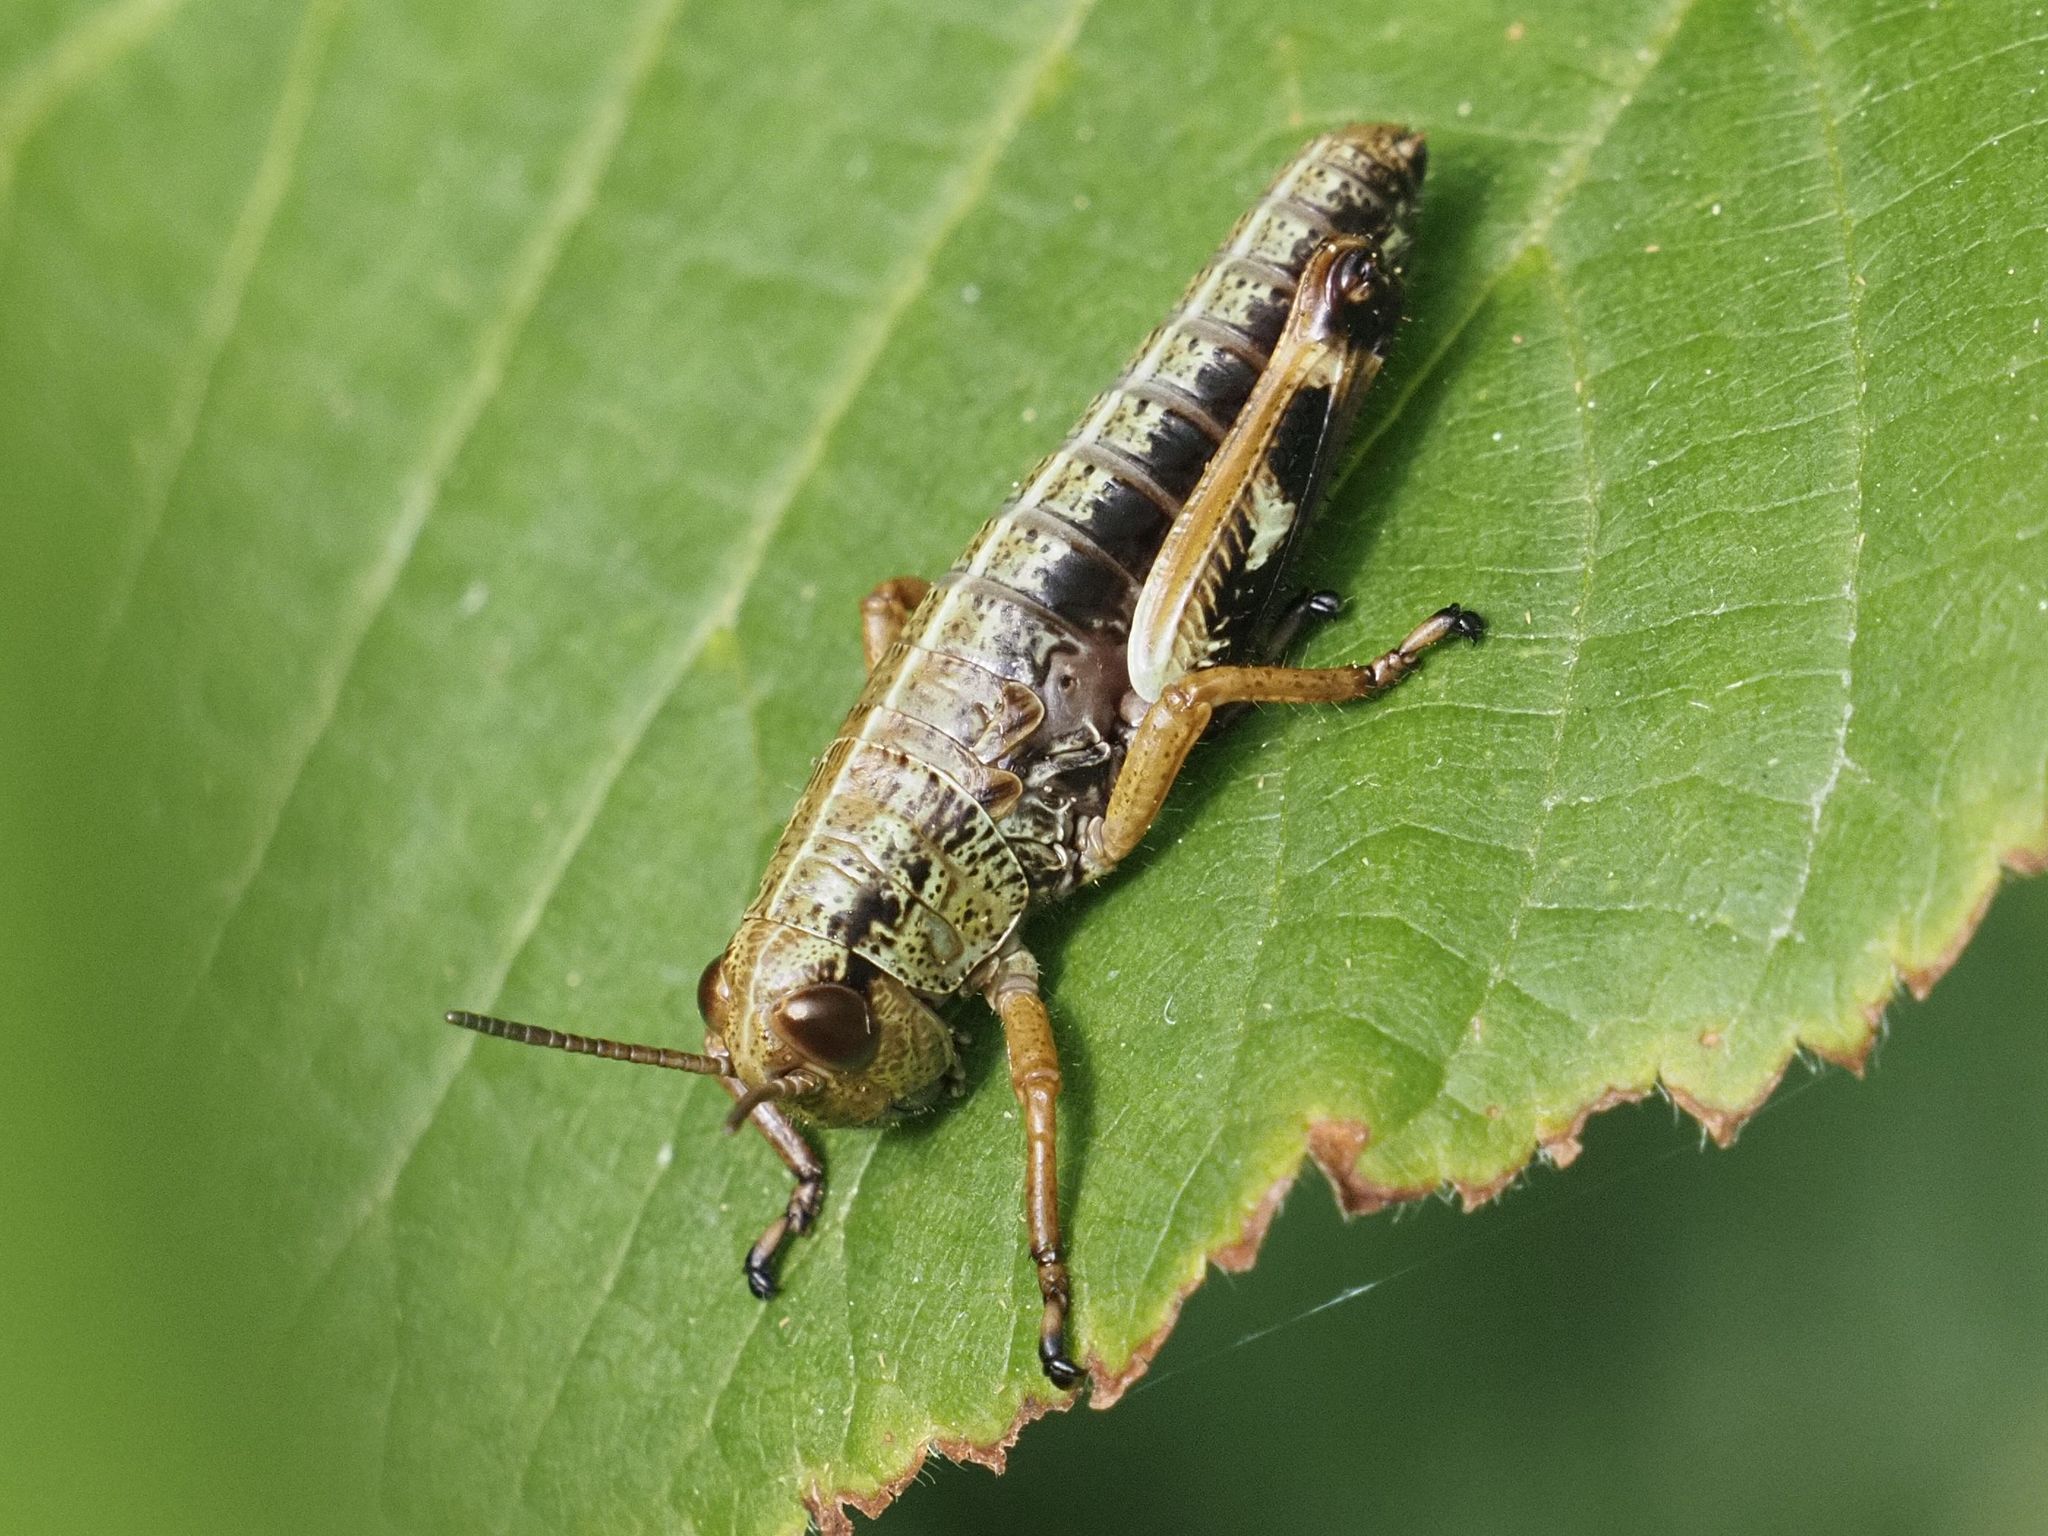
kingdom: Animalia
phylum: Arthropoda
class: Insecta
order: Orthoptera
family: Acrididae
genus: Miramella
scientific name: Miramella alpina
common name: Green mountain grasshopper
